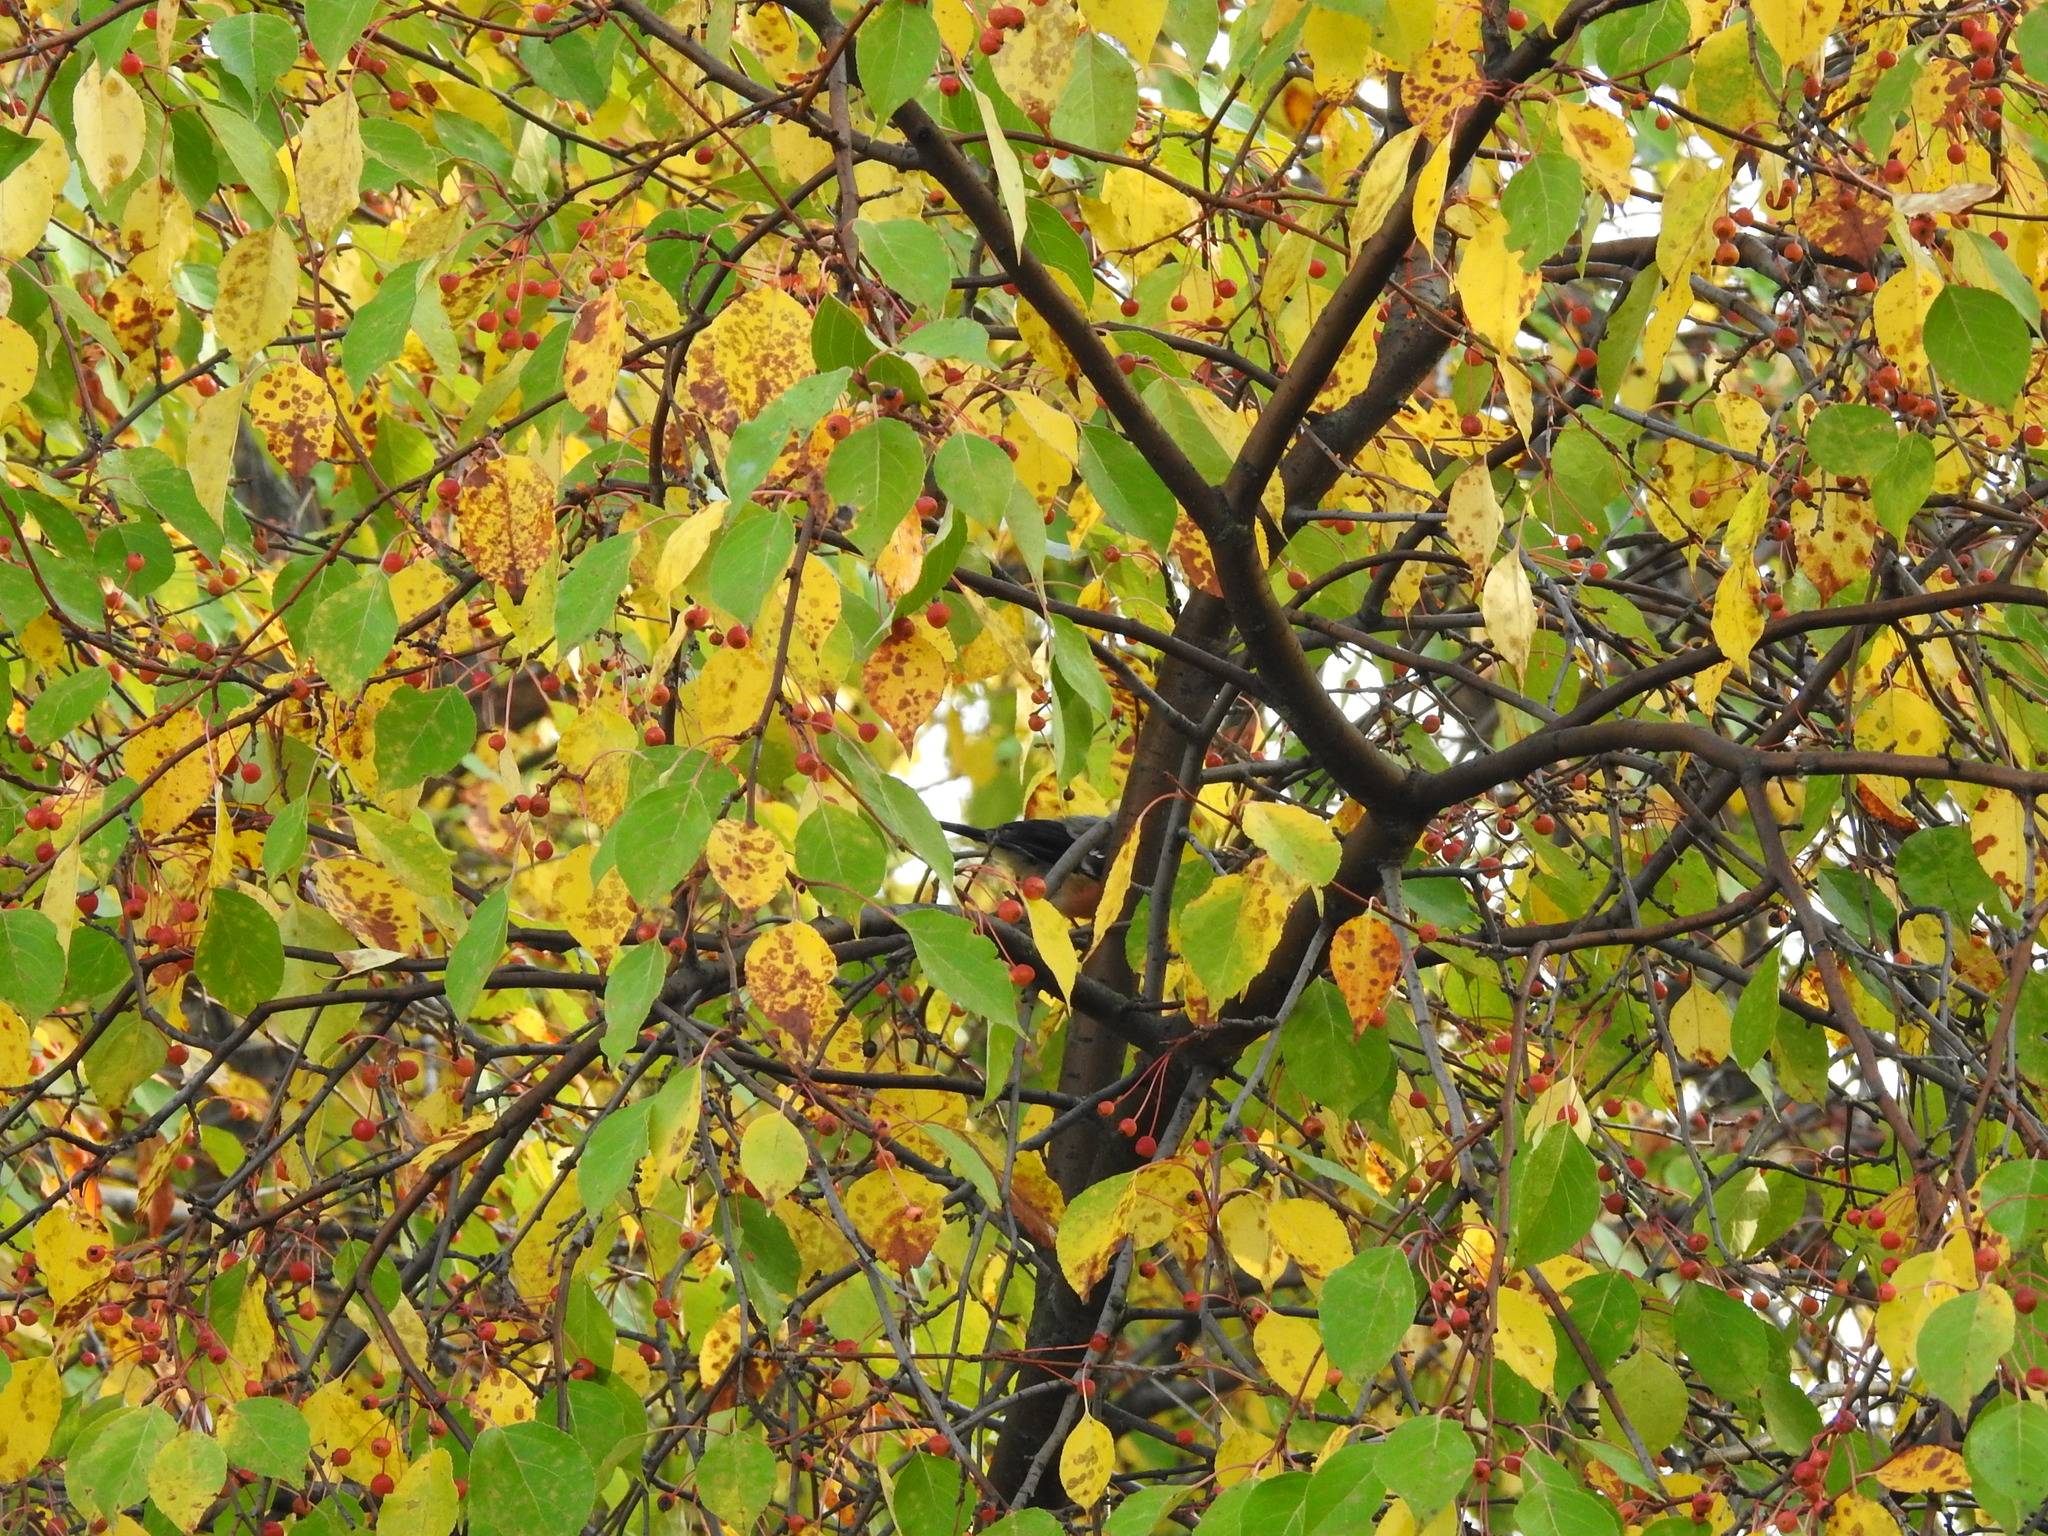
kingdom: Animalia
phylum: Chordata
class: Aves
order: Passeriformes
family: Fringillidae
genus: Pyrrhula
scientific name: Pyrrhula pyrrhula
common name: Eurasian bullfinch
